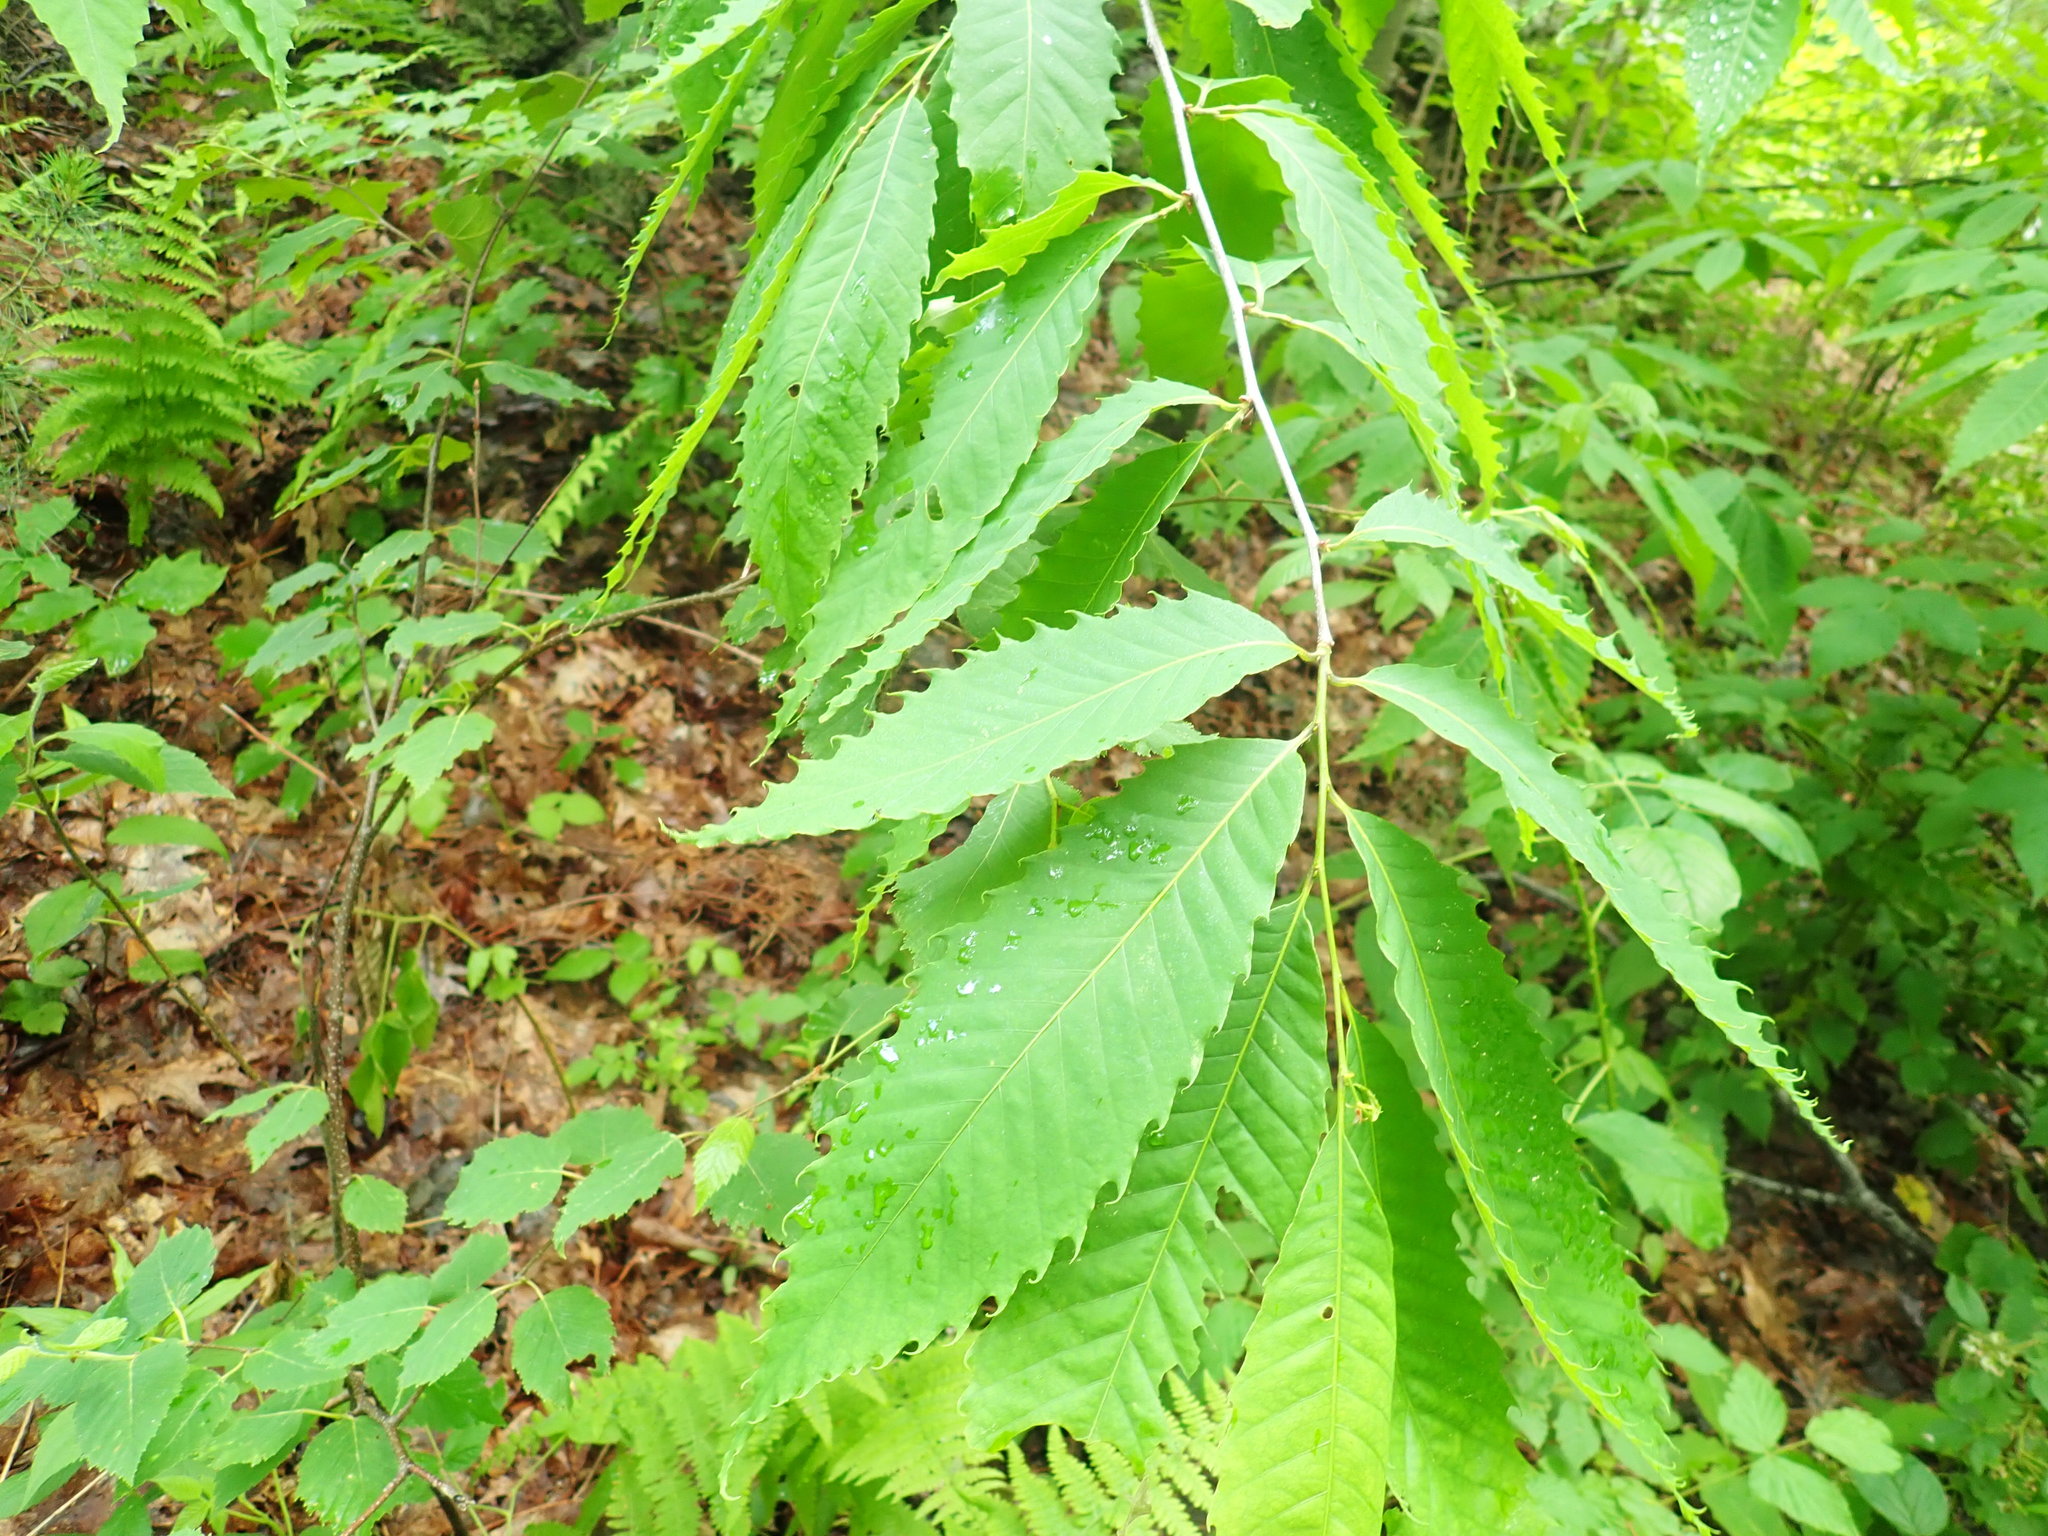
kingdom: Plantae
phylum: Tracheophyta
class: Magnoliopsida
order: Fagales
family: Fagaceae
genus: Castanea
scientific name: Castanea dentata
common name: American chestnut
